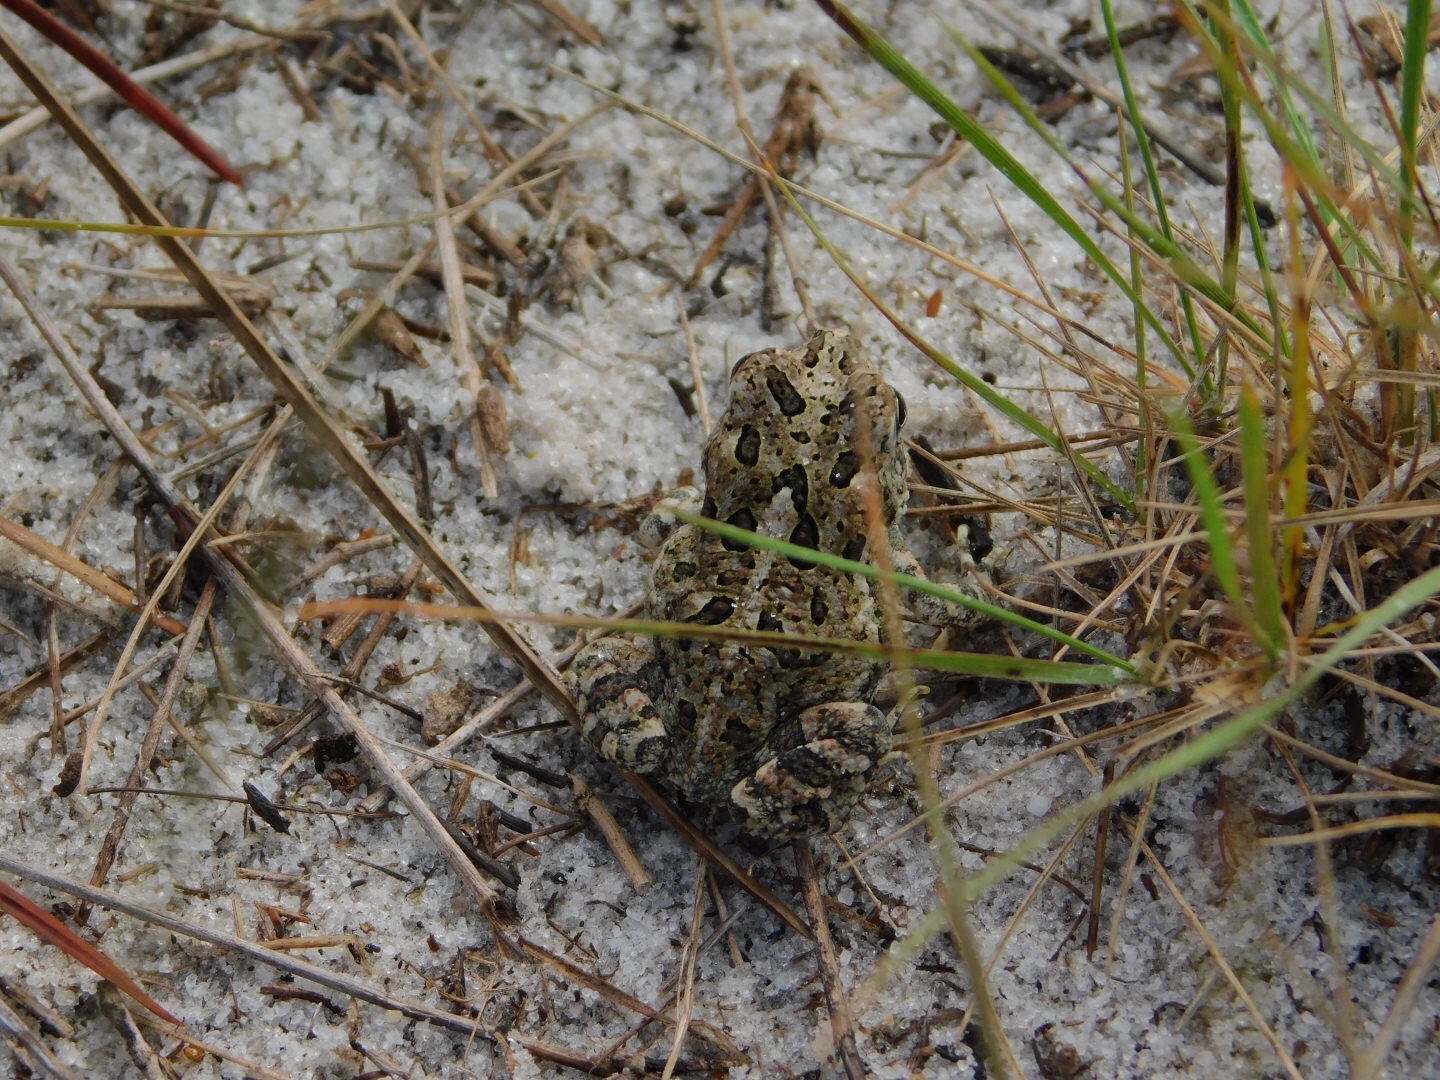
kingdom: Animalia
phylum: Chordata
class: Amphibia
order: Anura
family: Bufonidae
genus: Anaxyrus
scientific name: Anaxyrus terrestris
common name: Southern toad
